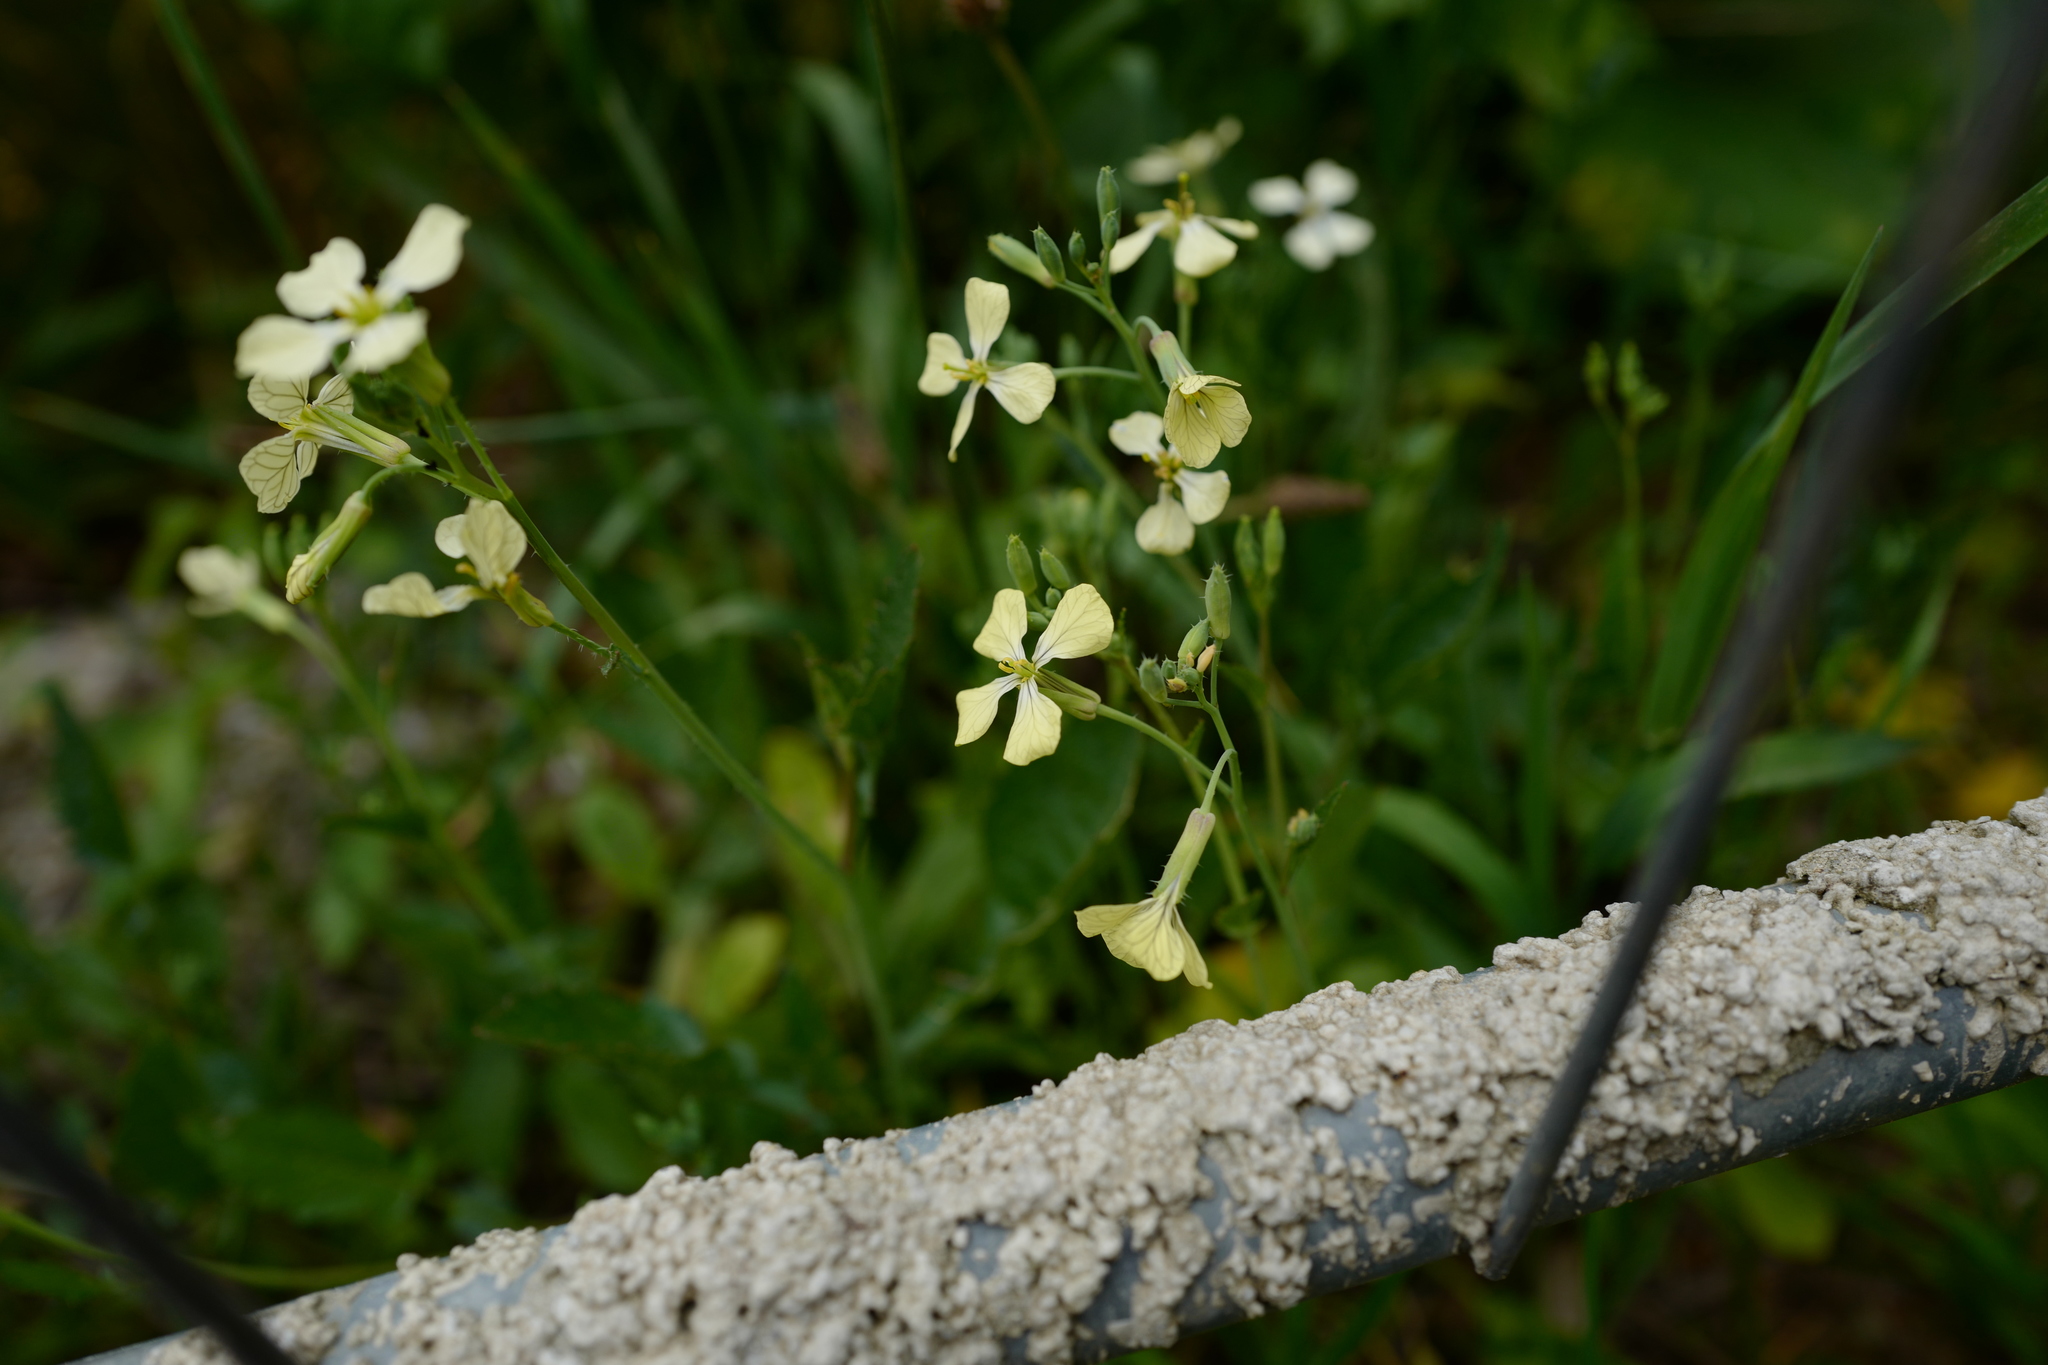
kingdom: Plantae
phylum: Tracheophyta
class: Magnoliopsida
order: Brassicales
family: Brassicaceae
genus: Raphanus
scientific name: Raphanus raphanistrum
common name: Wild radish
